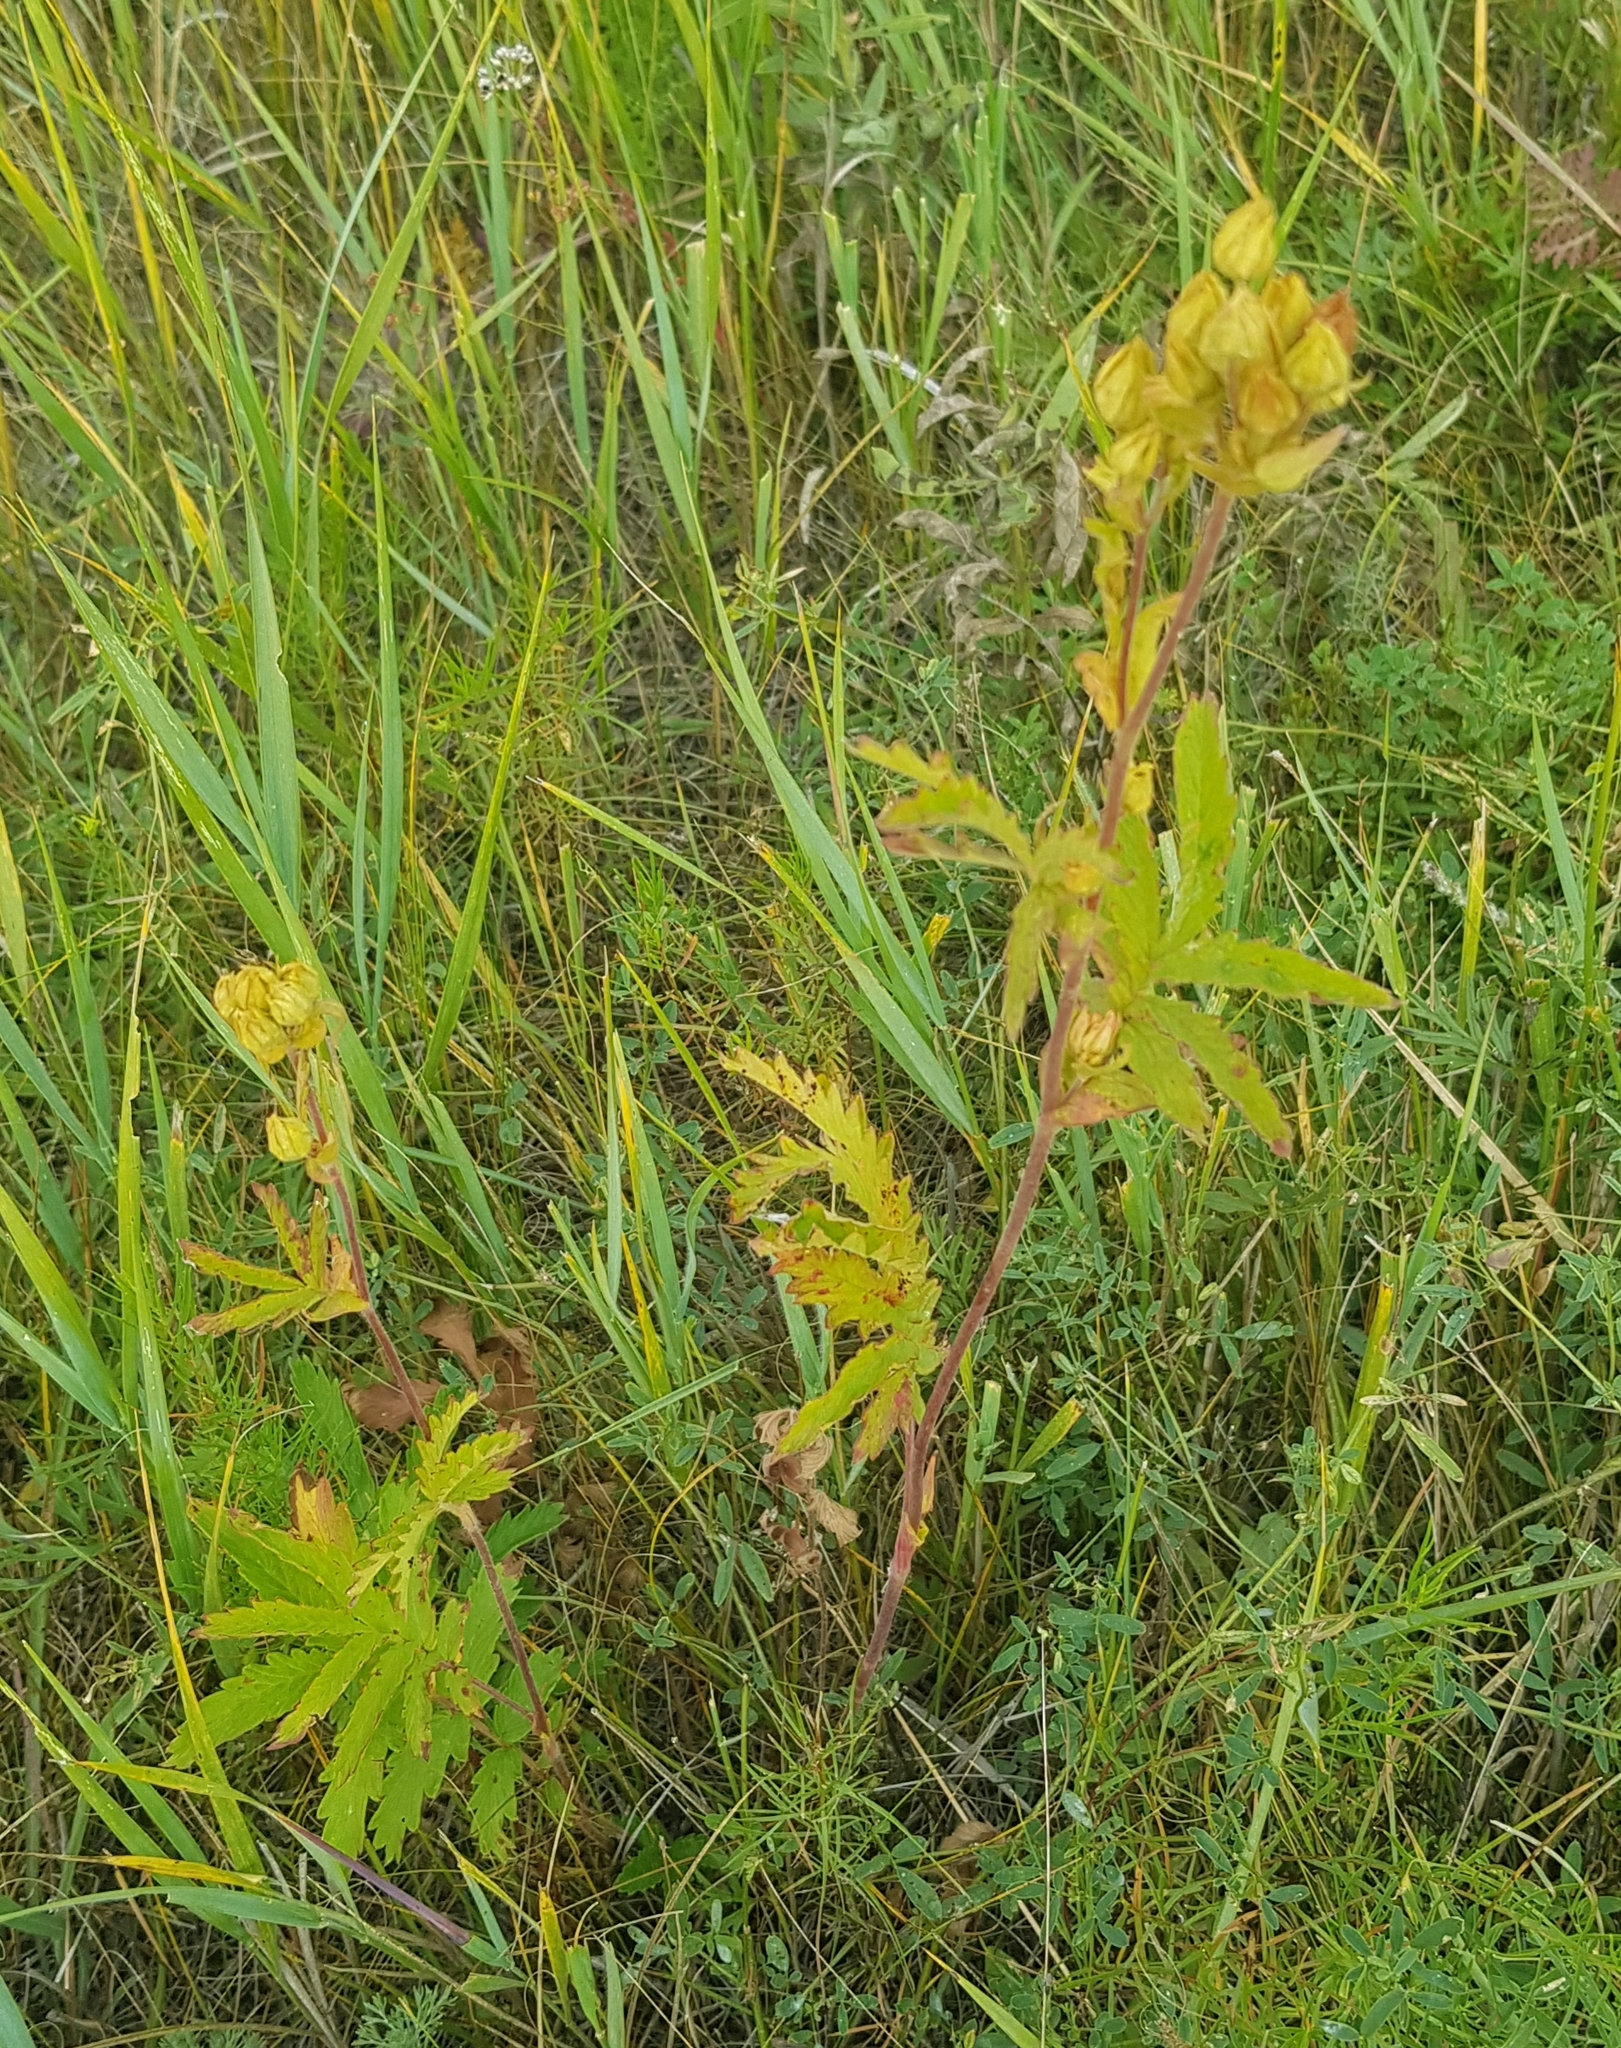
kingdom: Plantae
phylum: Tracheophyta
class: Magnoliopsida
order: Rosales
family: Rosaceae
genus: Potentilla
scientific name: Potentilla tanacetifolia
